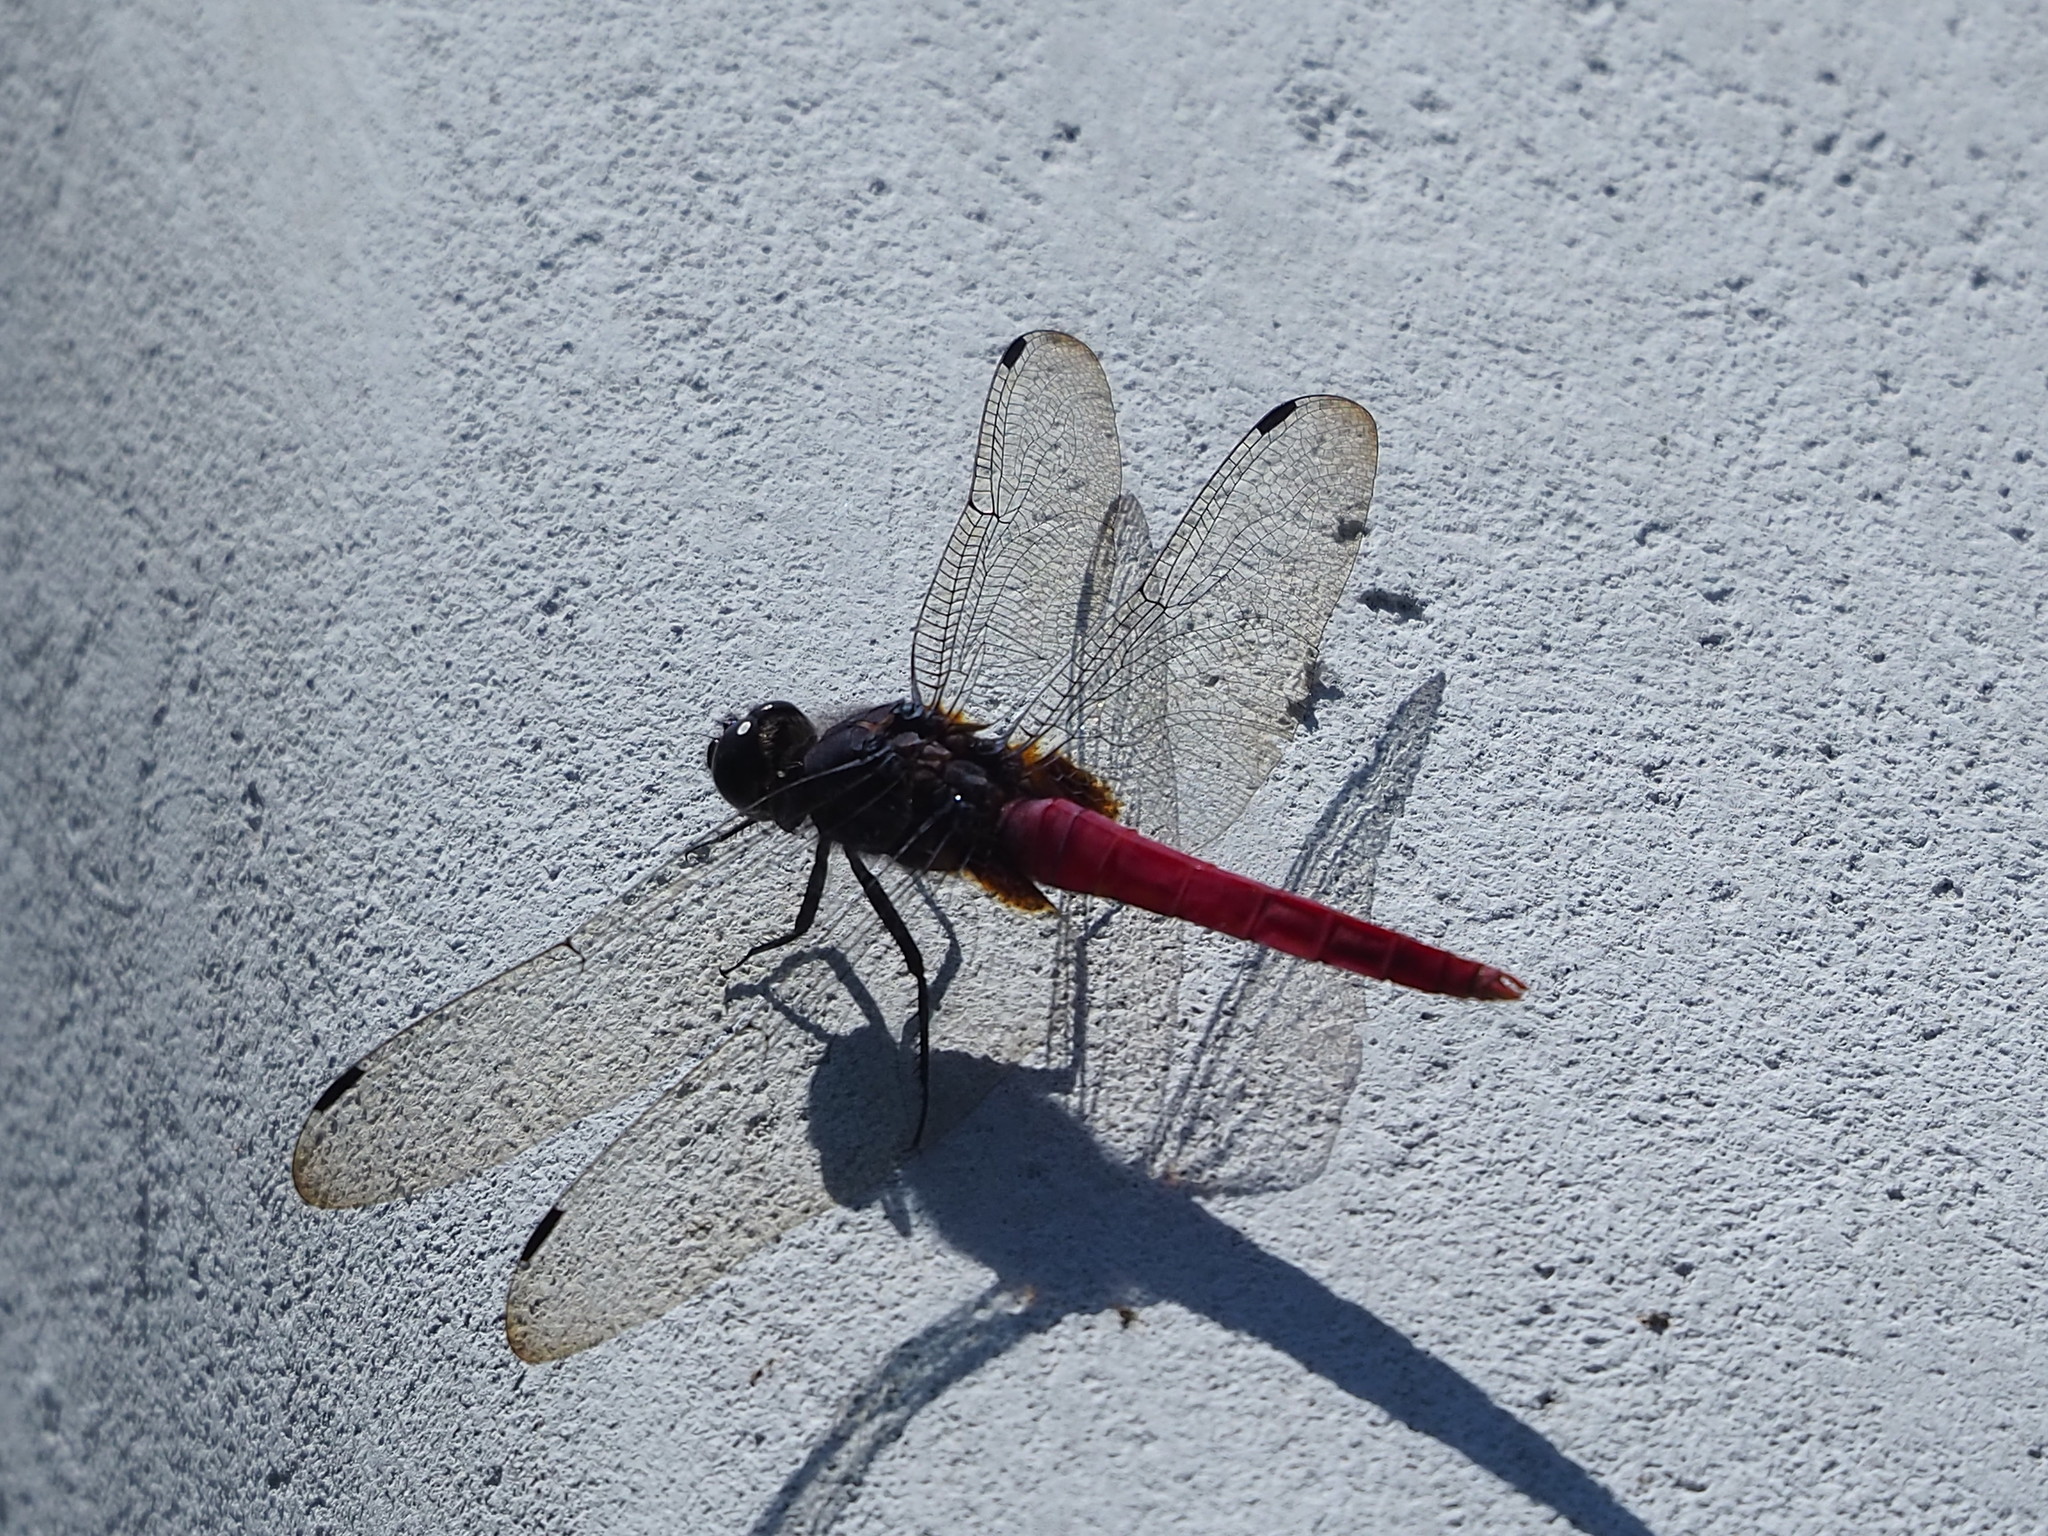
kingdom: Animalia
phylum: Arthropoda
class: Insecta
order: Odonata
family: Libellulidae
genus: Orthetrum
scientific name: Orthetrum pruinosum
